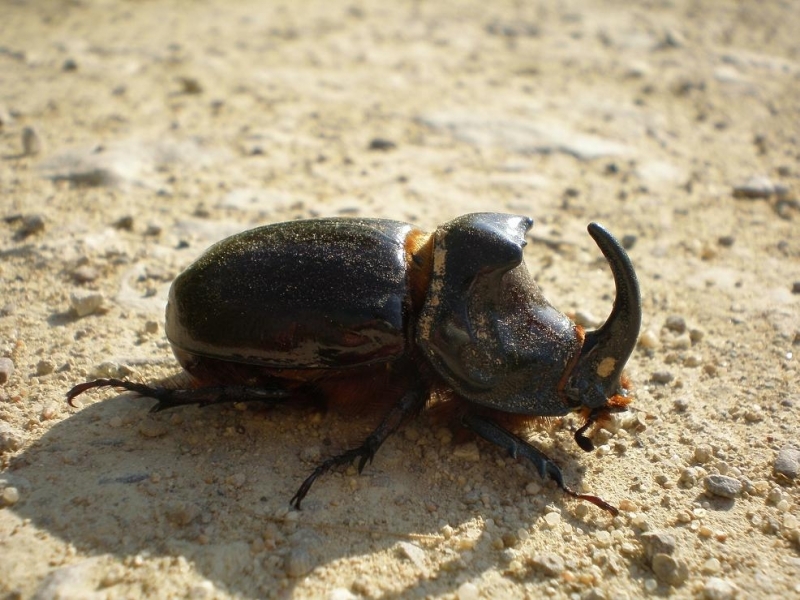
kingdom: Animalia
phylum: Arthropoda
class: Insecta
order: Coleoptera
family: Scarabaeidae
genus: Oryctes
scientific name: Oryctes nasicornis
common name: European rhinoceros beetle
